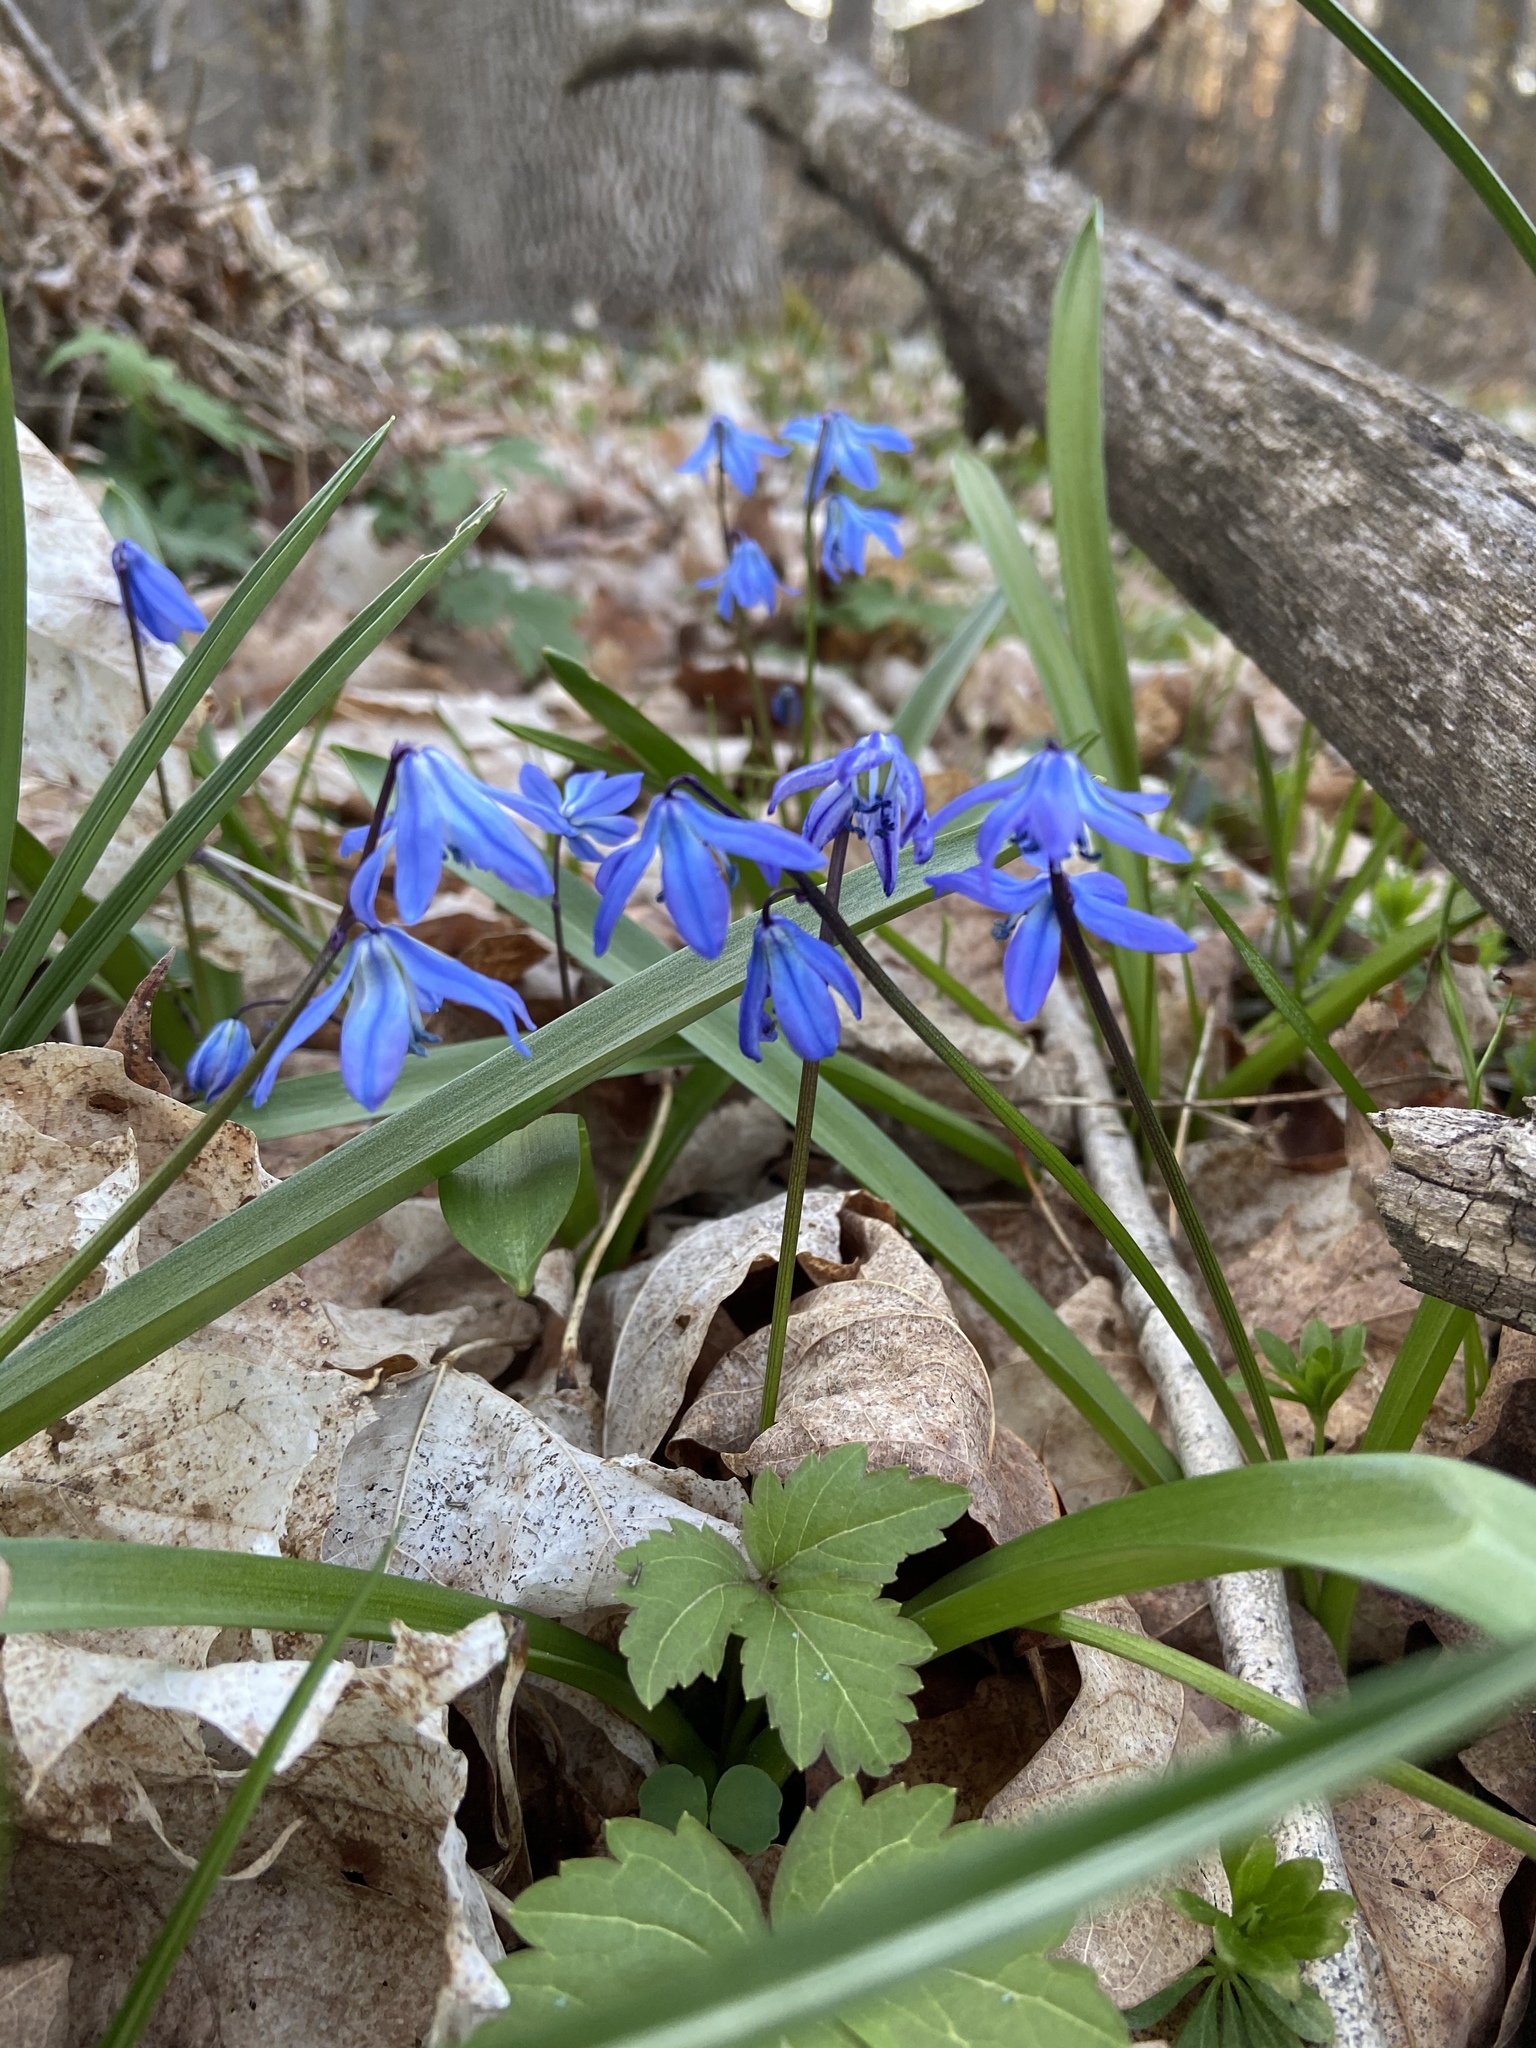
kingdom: Plantae
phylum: Tracheophyta
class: Liliopsida
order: Asparagales
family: Asparagaceae
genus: Scilla
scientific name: Scilla siberica
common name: Siberian squill
